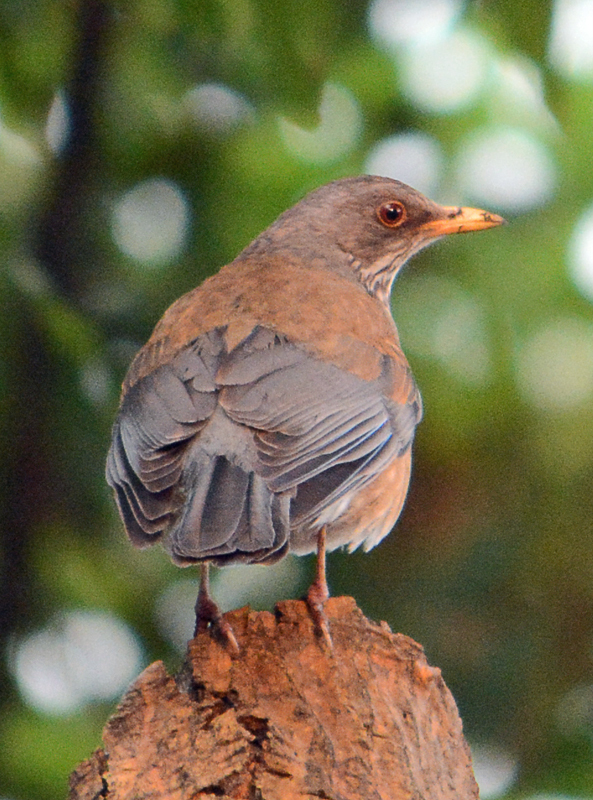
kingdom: Animalia
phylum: Chordata
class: Aves
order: Passeriformes
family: Turdidae
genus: Turdus
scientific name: Turdus rufopalliatus
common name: Rufous-backed robin
